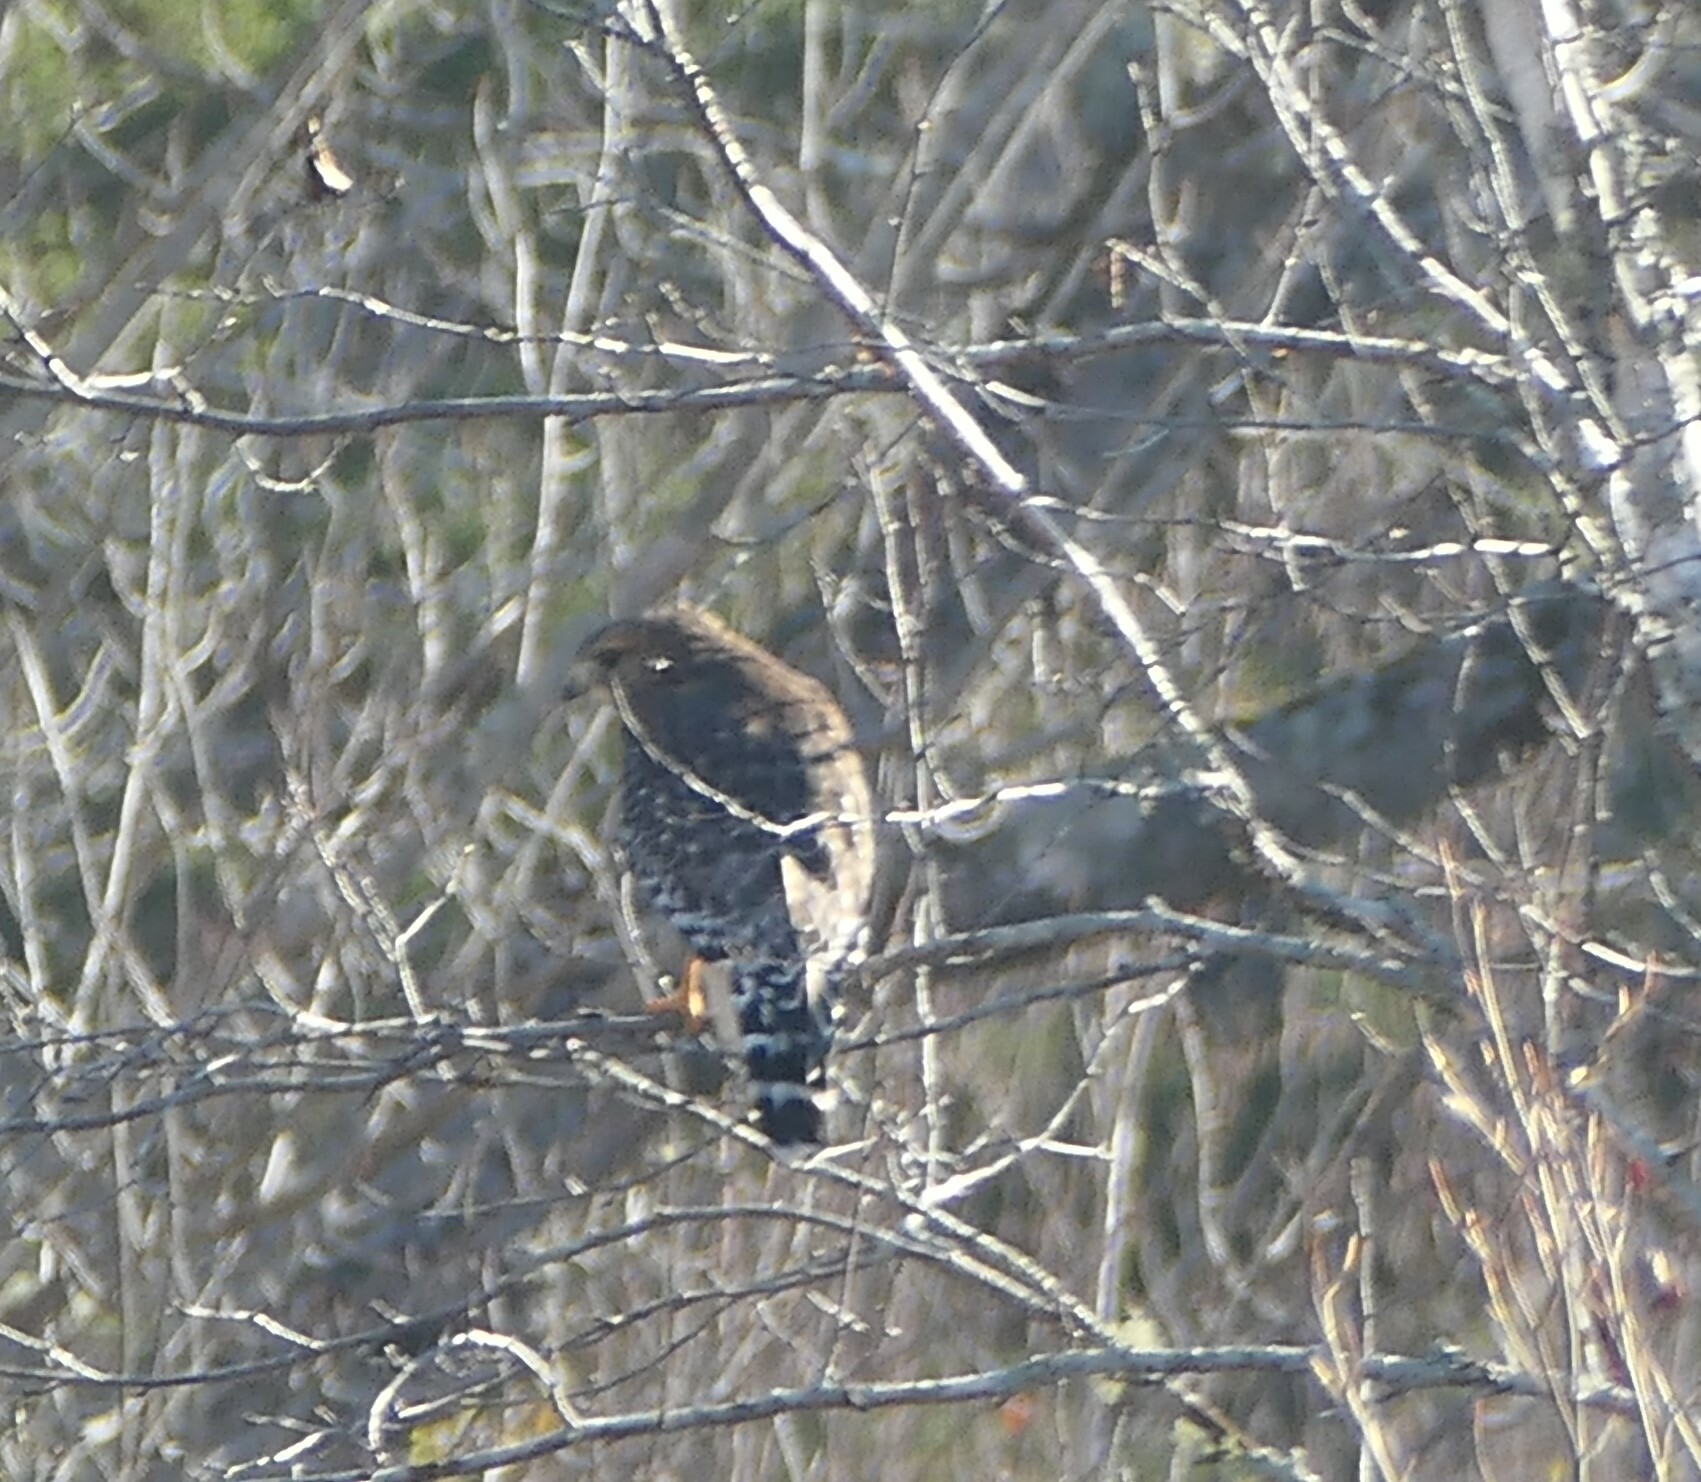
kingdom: Animalia
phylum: Chordata
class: Aves
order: Accipitriformes
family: Accipitridae
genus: Buteo
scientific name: Buteo lineatus
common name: Red-shouldered hawk
